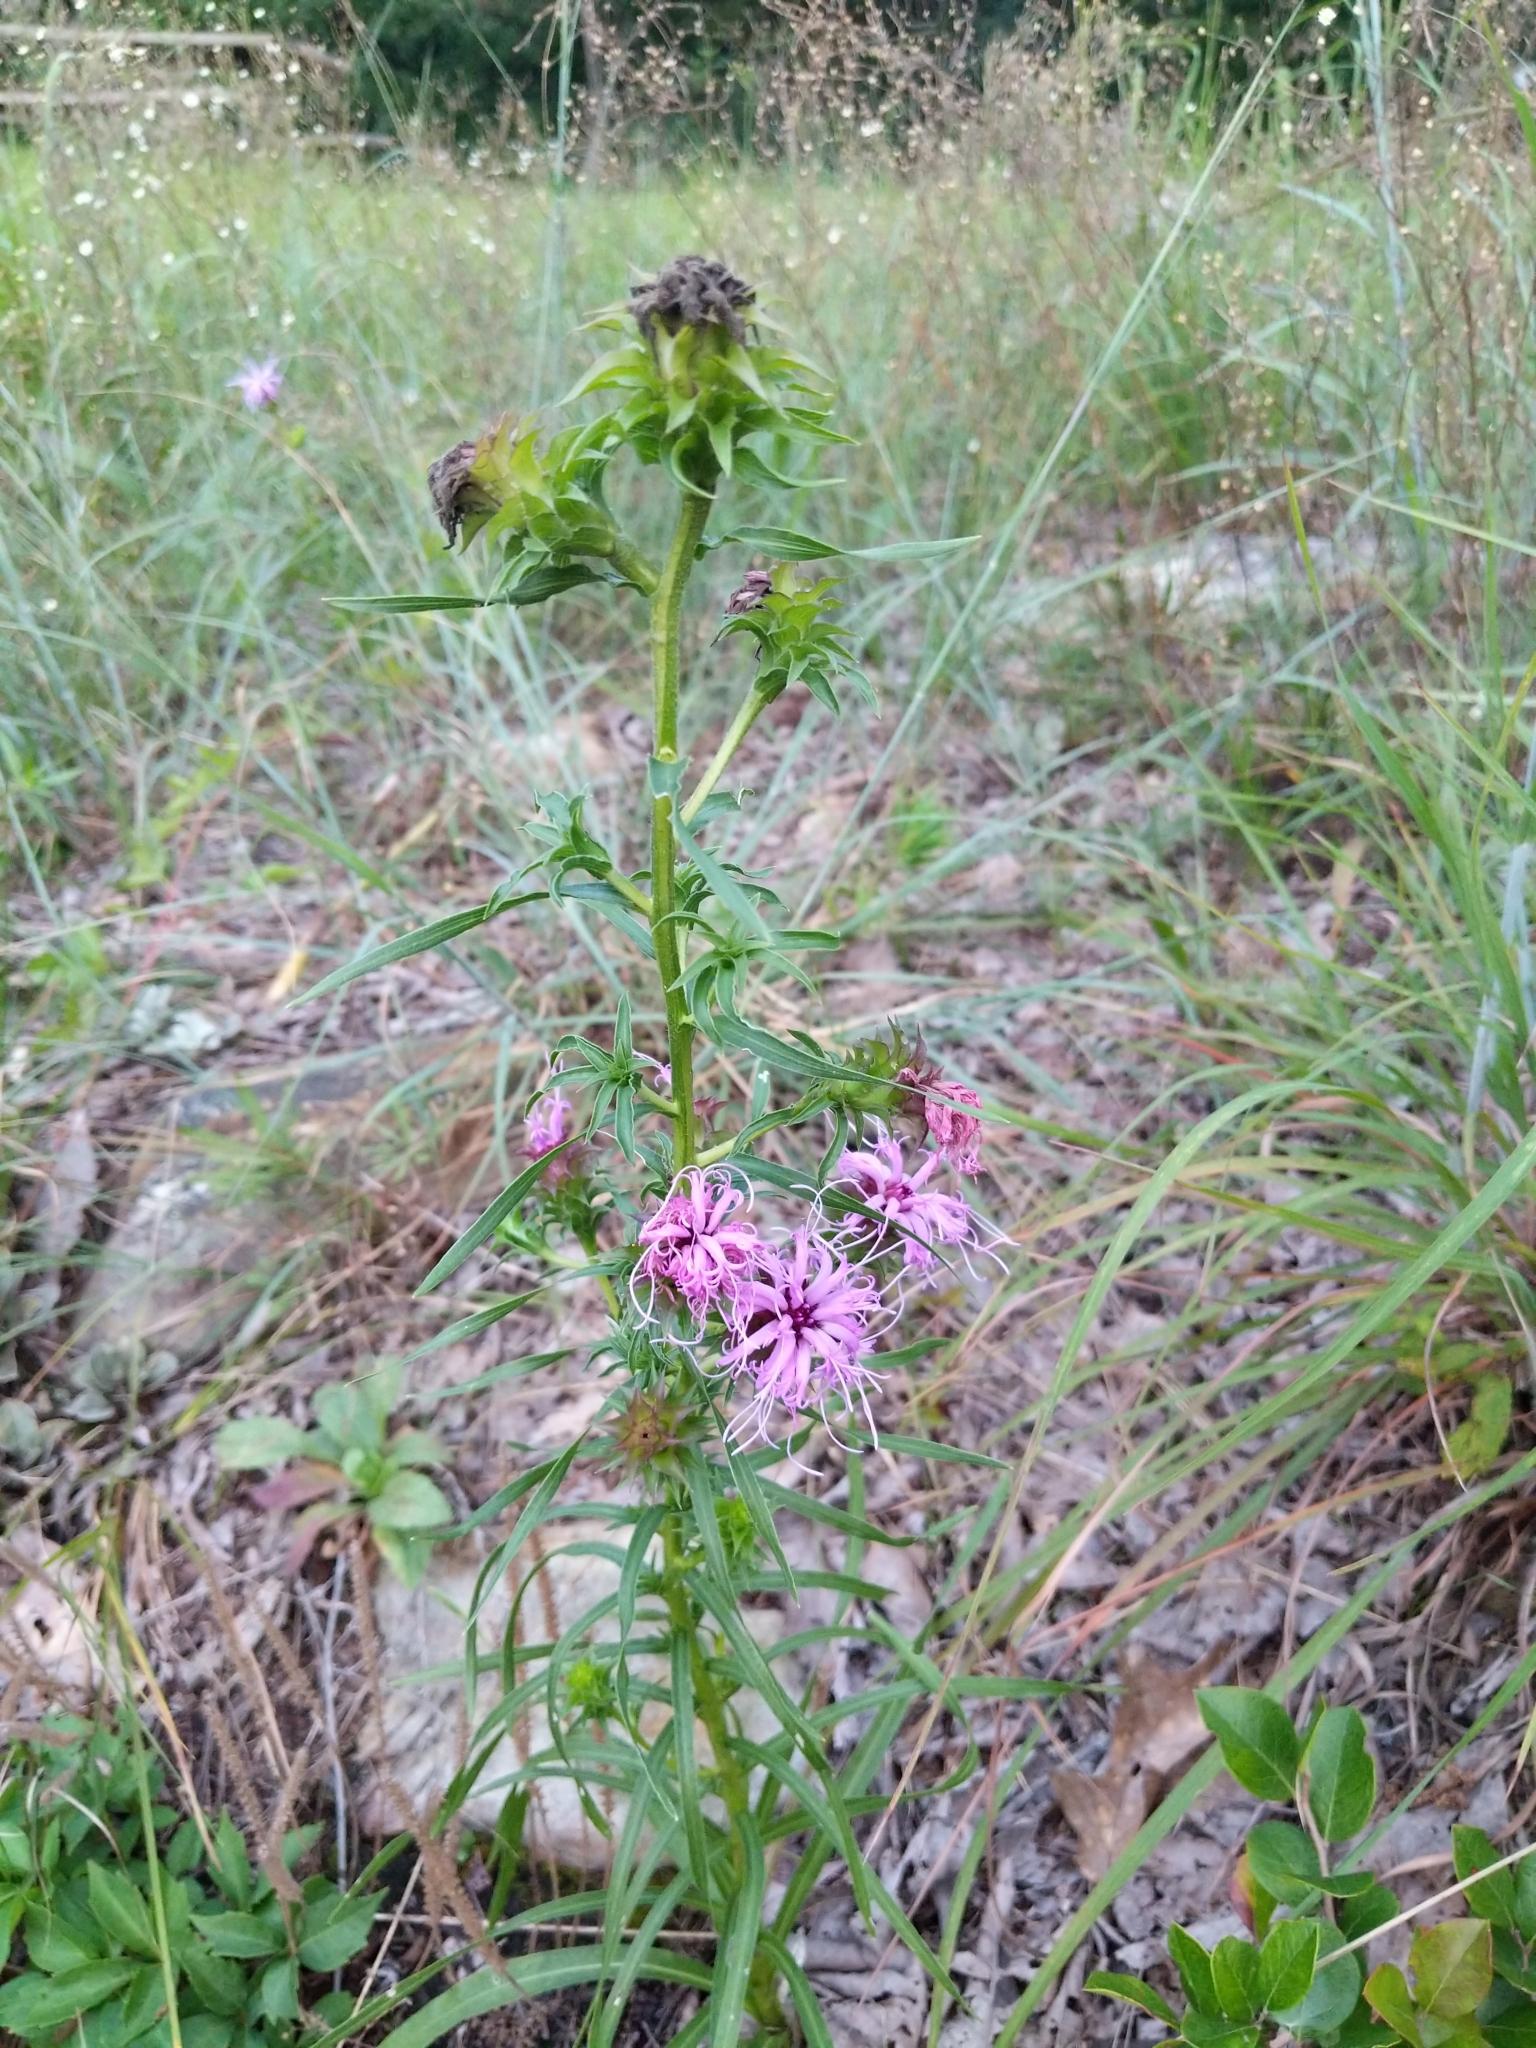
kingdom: Plantae
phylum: Tracheophyta
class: Magnoliopsida
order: Asterales
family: Asteraceae
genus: Liatris
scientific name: Liatris squarrosa
